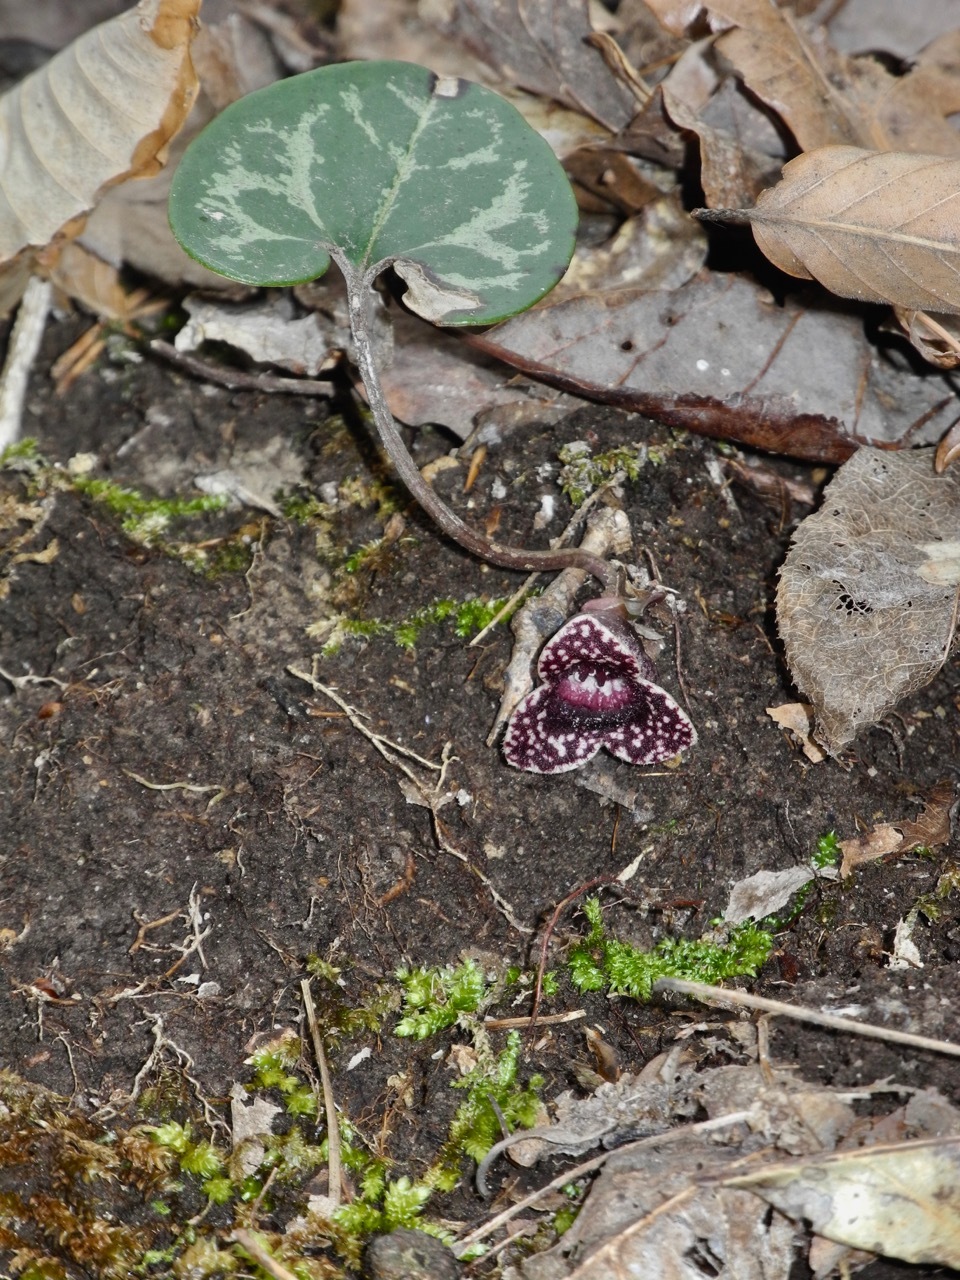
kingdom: Plantae
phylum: Tracheophyta
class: Magnoliopsida
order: Piperales
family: Aristolochiaceae
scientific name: Aristolochiaceae
